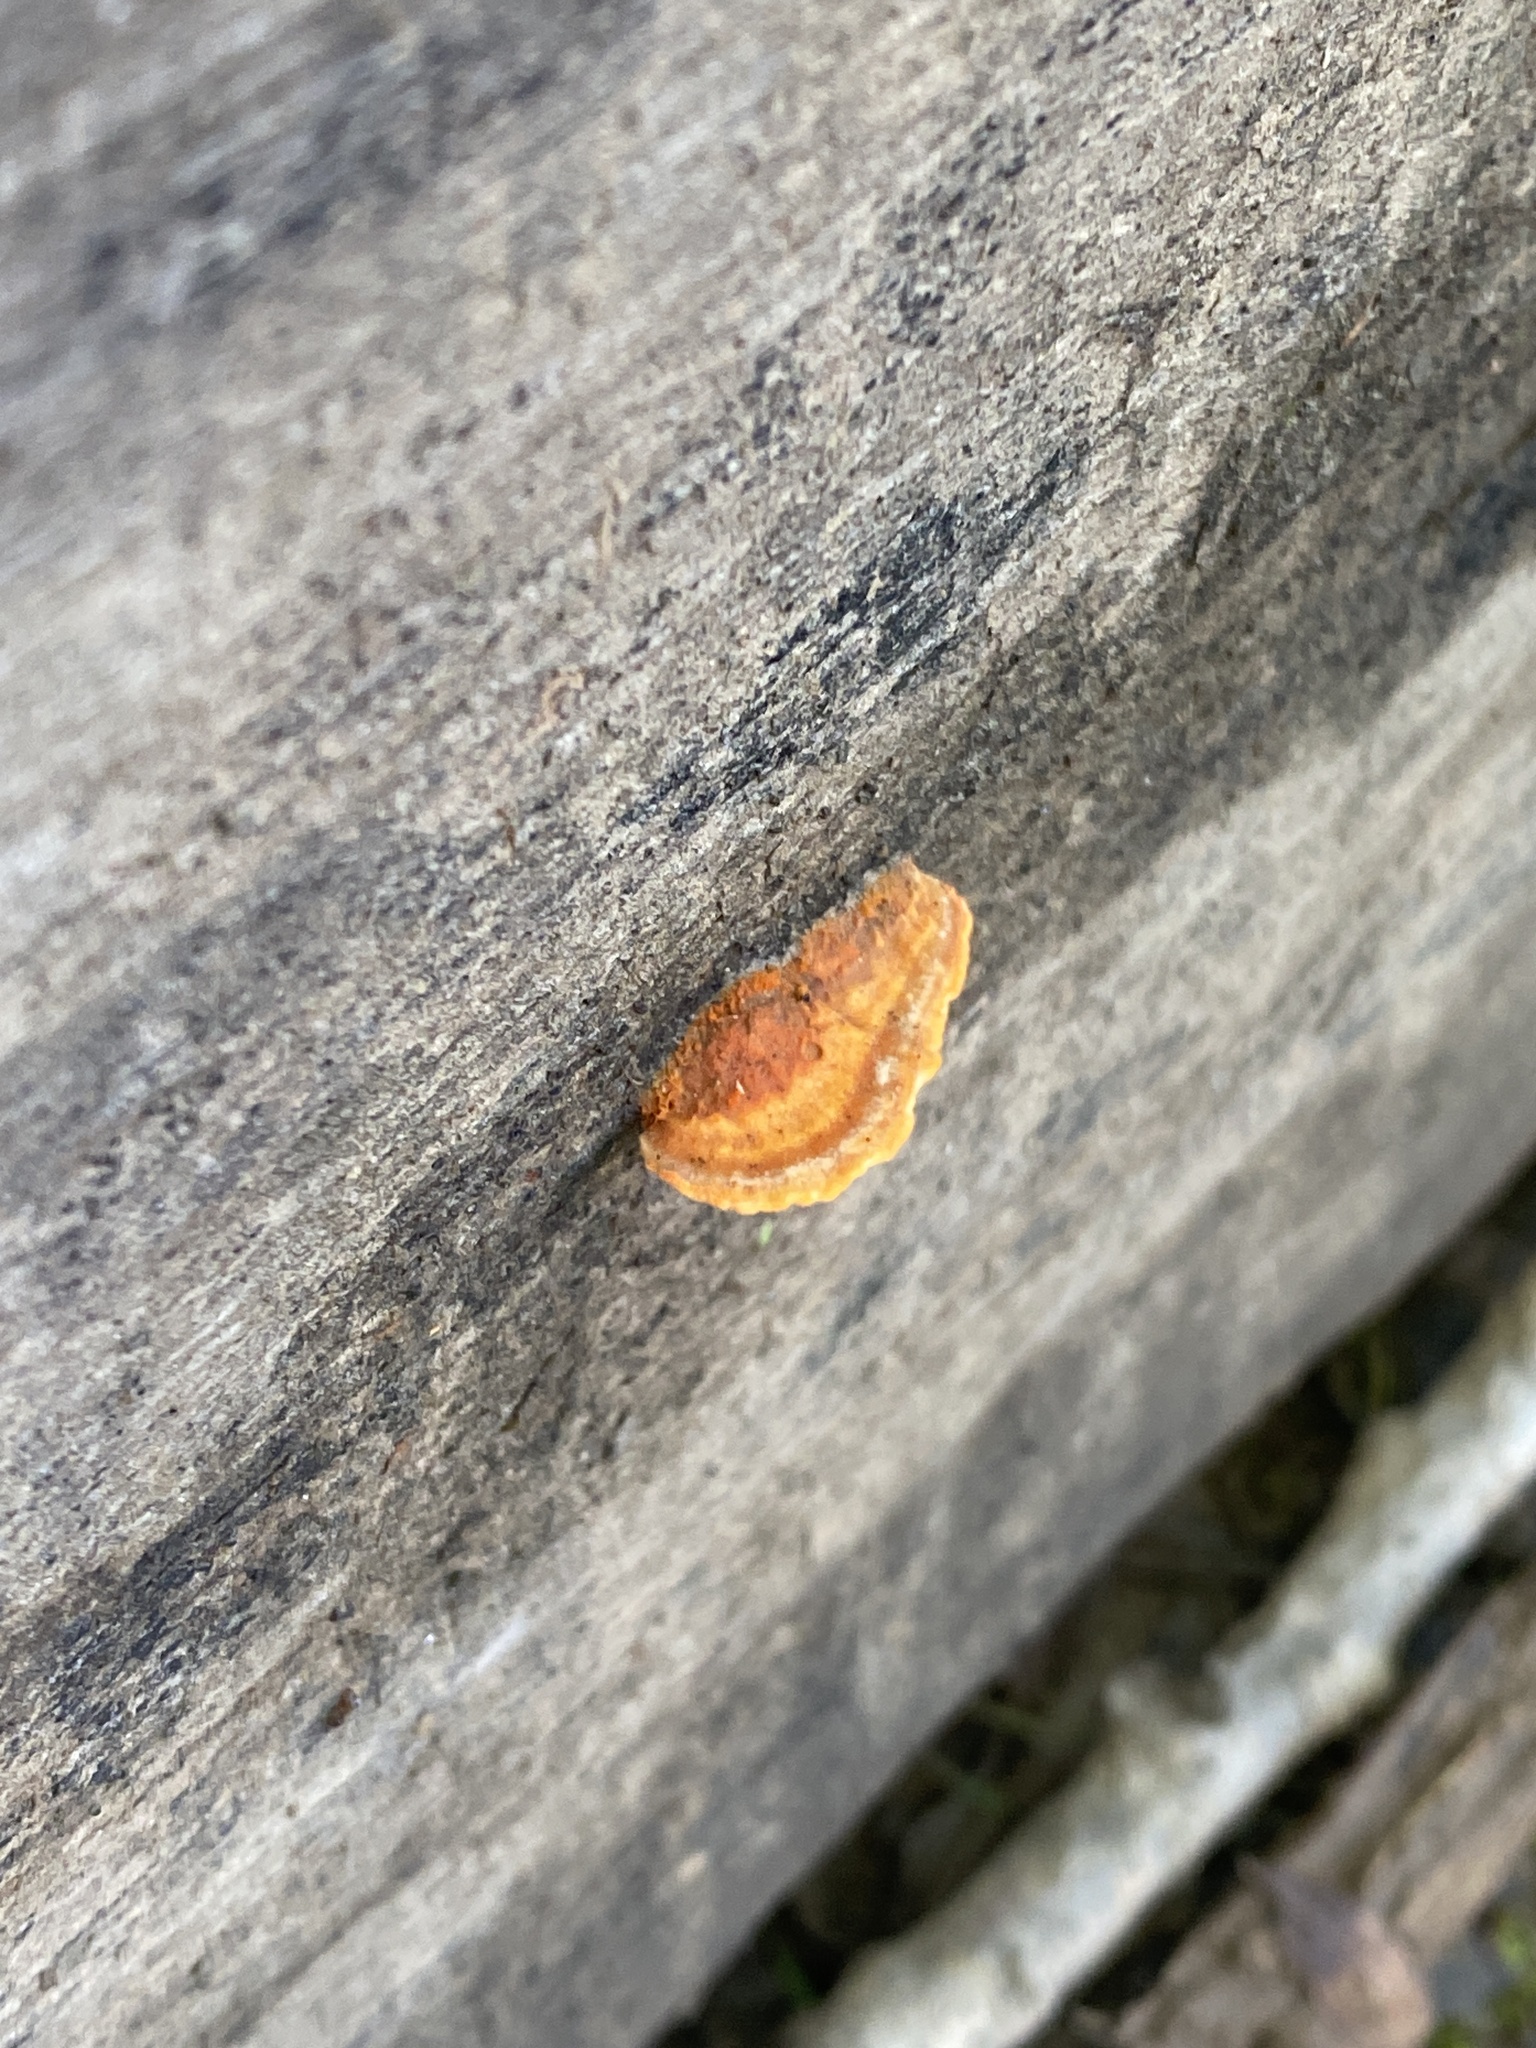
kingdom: Fungi
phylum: Basidiomycota
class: Agaricomycetes
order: Polyporales
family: Polyporaceae
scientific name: Polyporaceae
